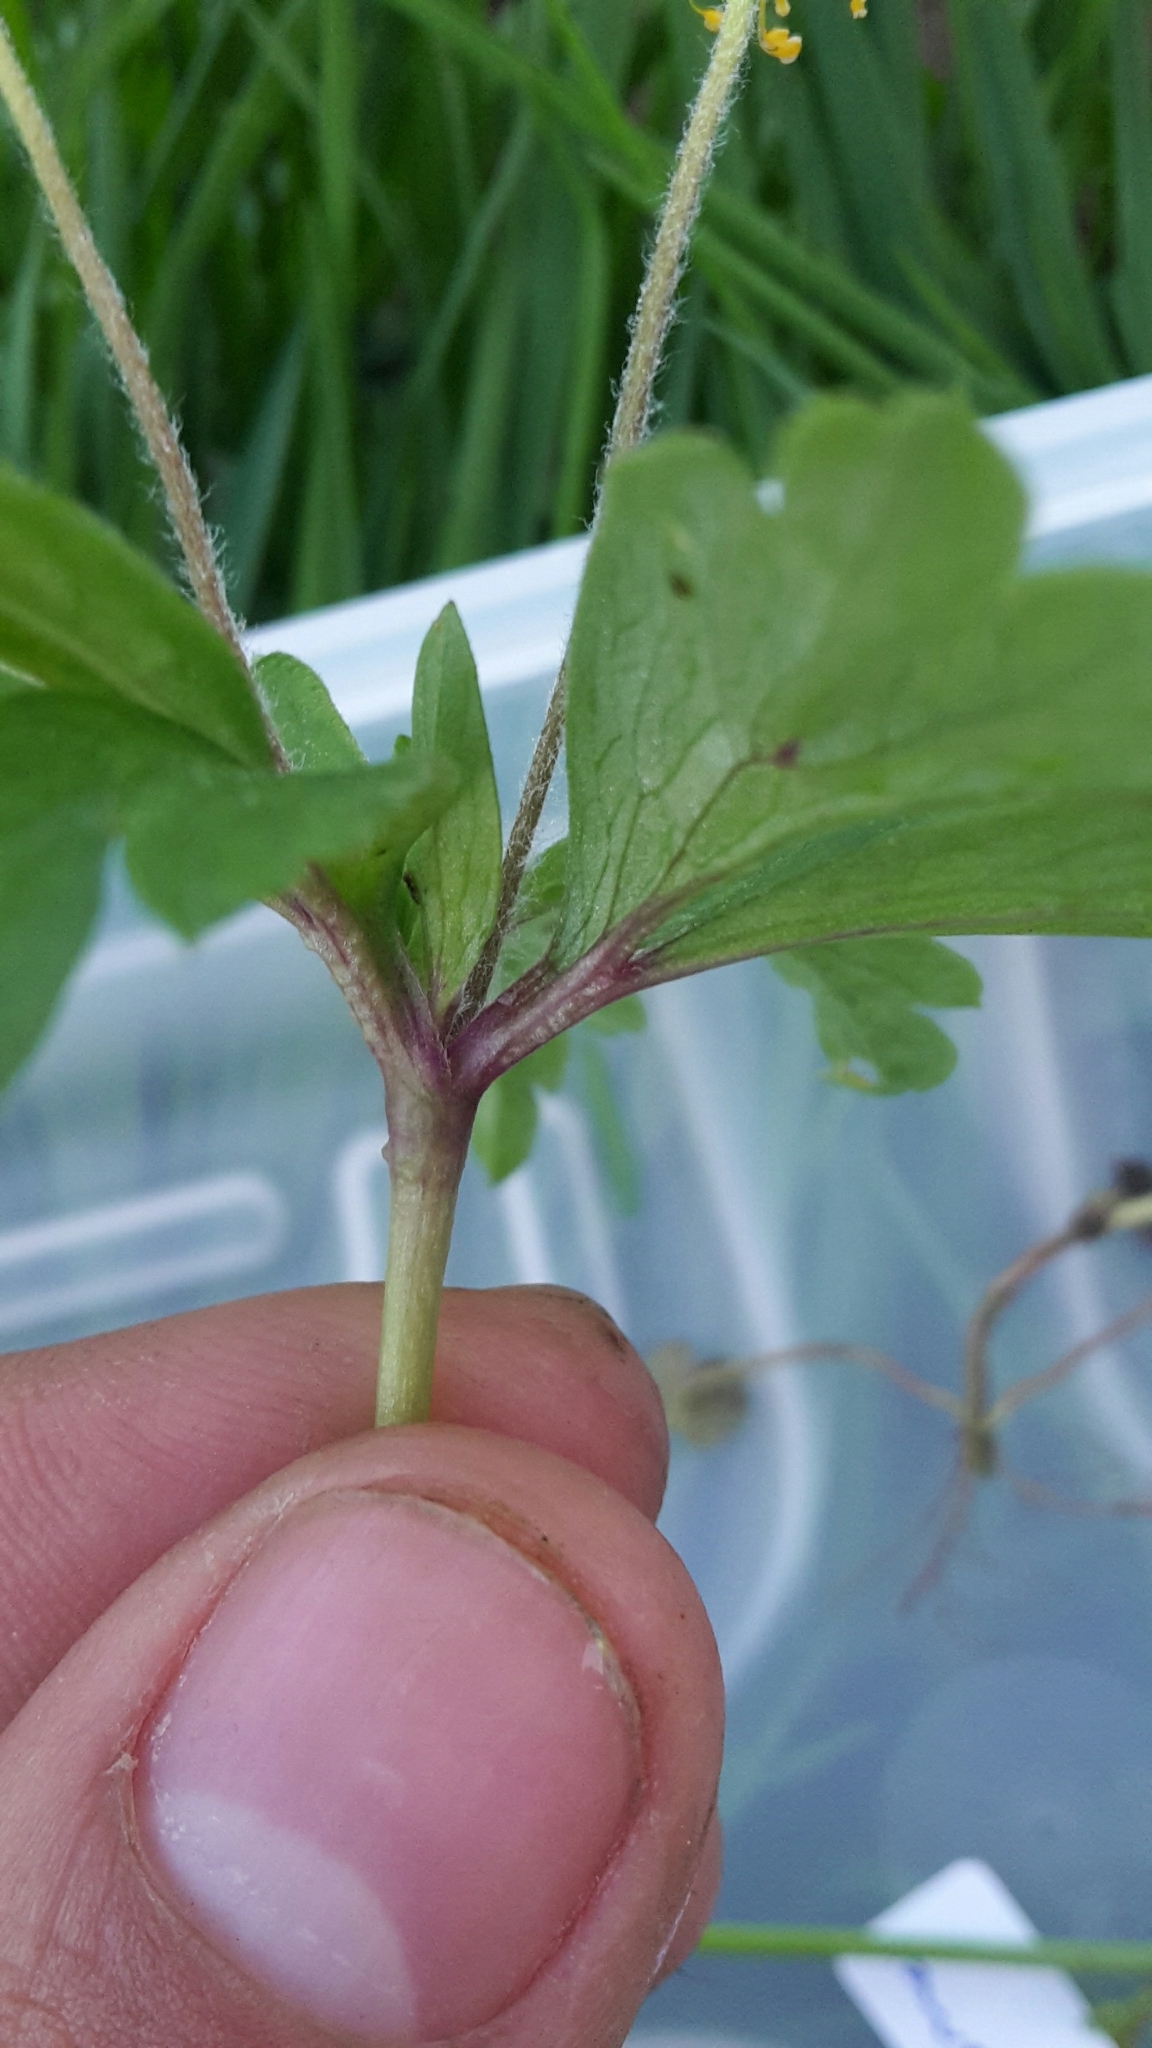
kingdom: Plantae
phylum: Tracheophyta
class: Magnoliopsida
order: Ranunculales
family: Ranunculaceae
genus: Anemone
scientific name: Anemone ranunculoides
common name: Yellow anemone
